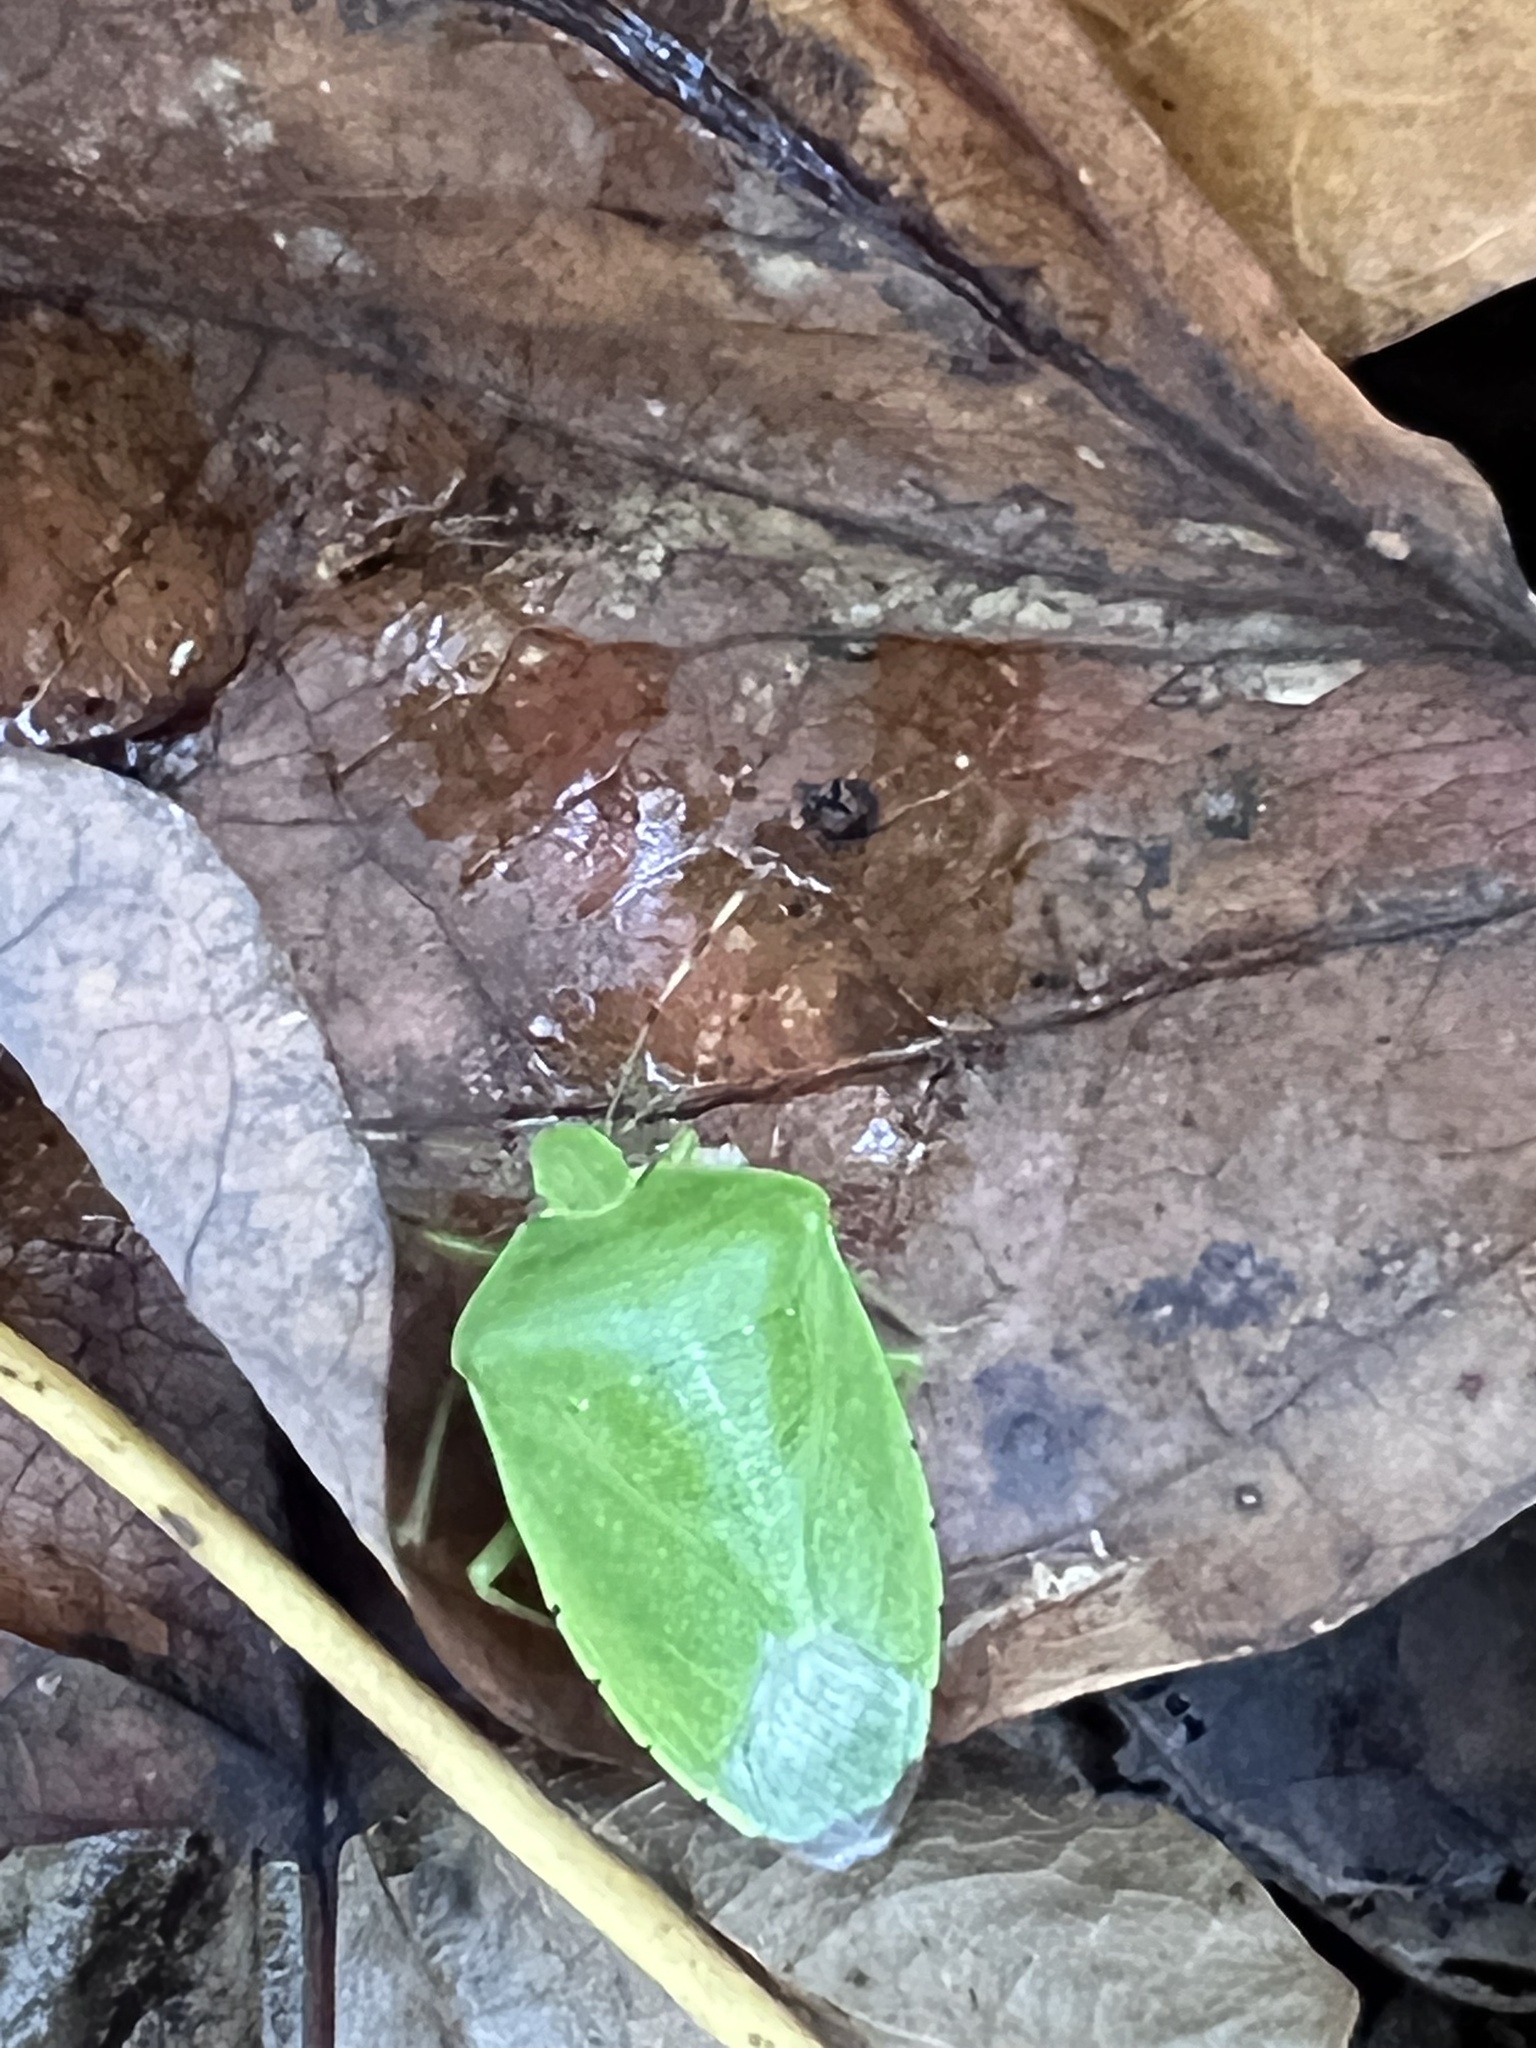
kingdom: Animalia
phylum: Arthropoda
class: Insecta
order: Hemiptera
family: Pentatomidae
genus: Chinavia
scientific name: Chinavia hilaris
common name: Green stink bug
